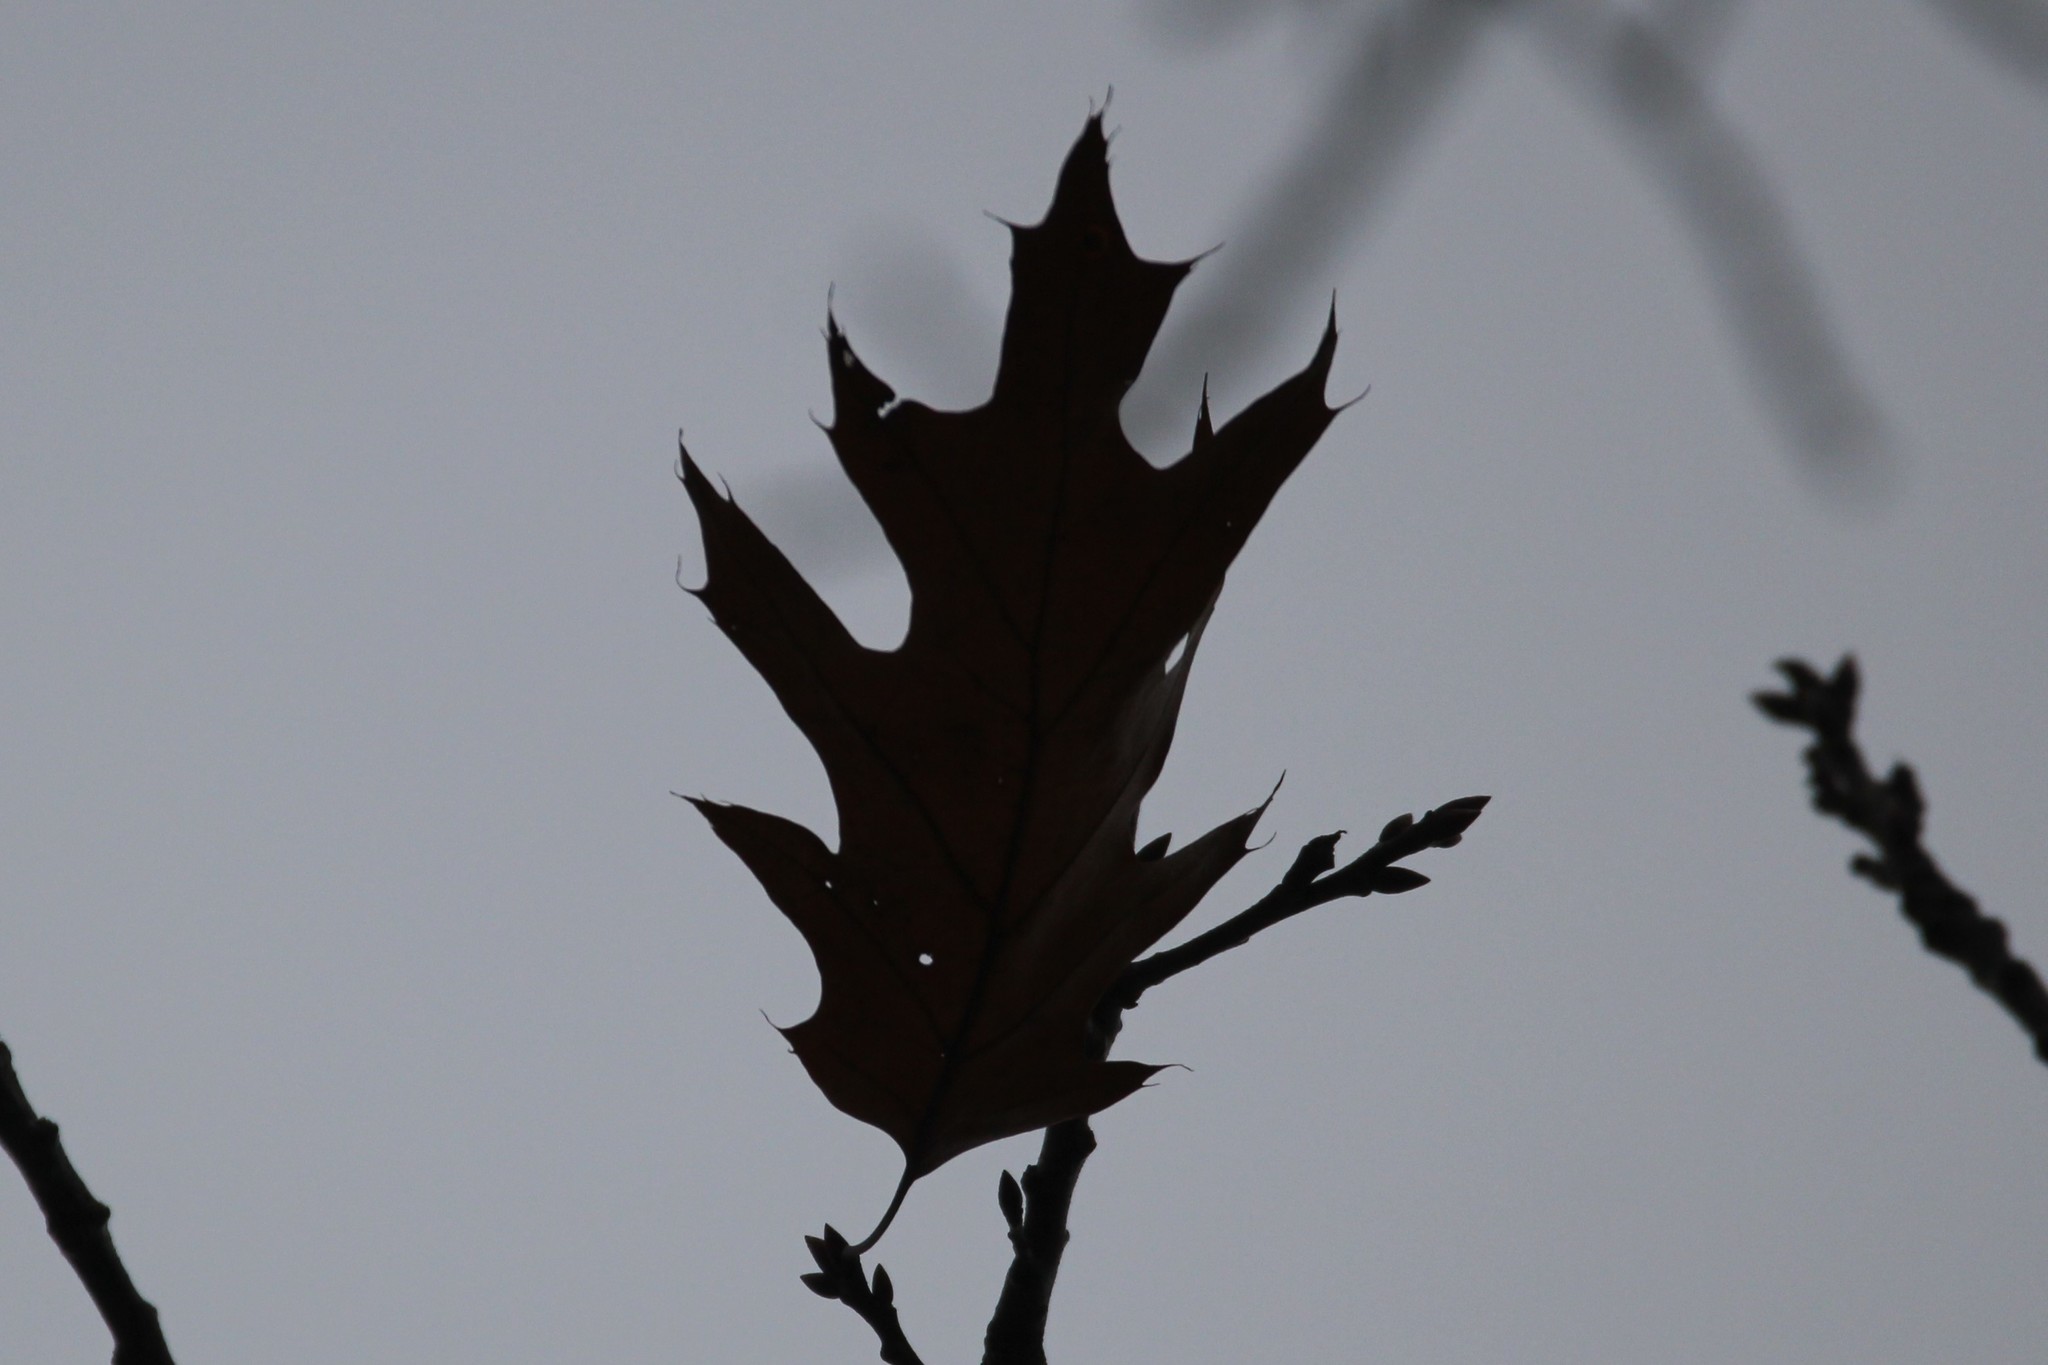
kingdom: Plantae
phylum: Tracheophyta
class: Magnoliopsida
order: Fagales
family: Fagaceae
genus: Quercus
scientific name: Quercus rubra
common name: Red oak
